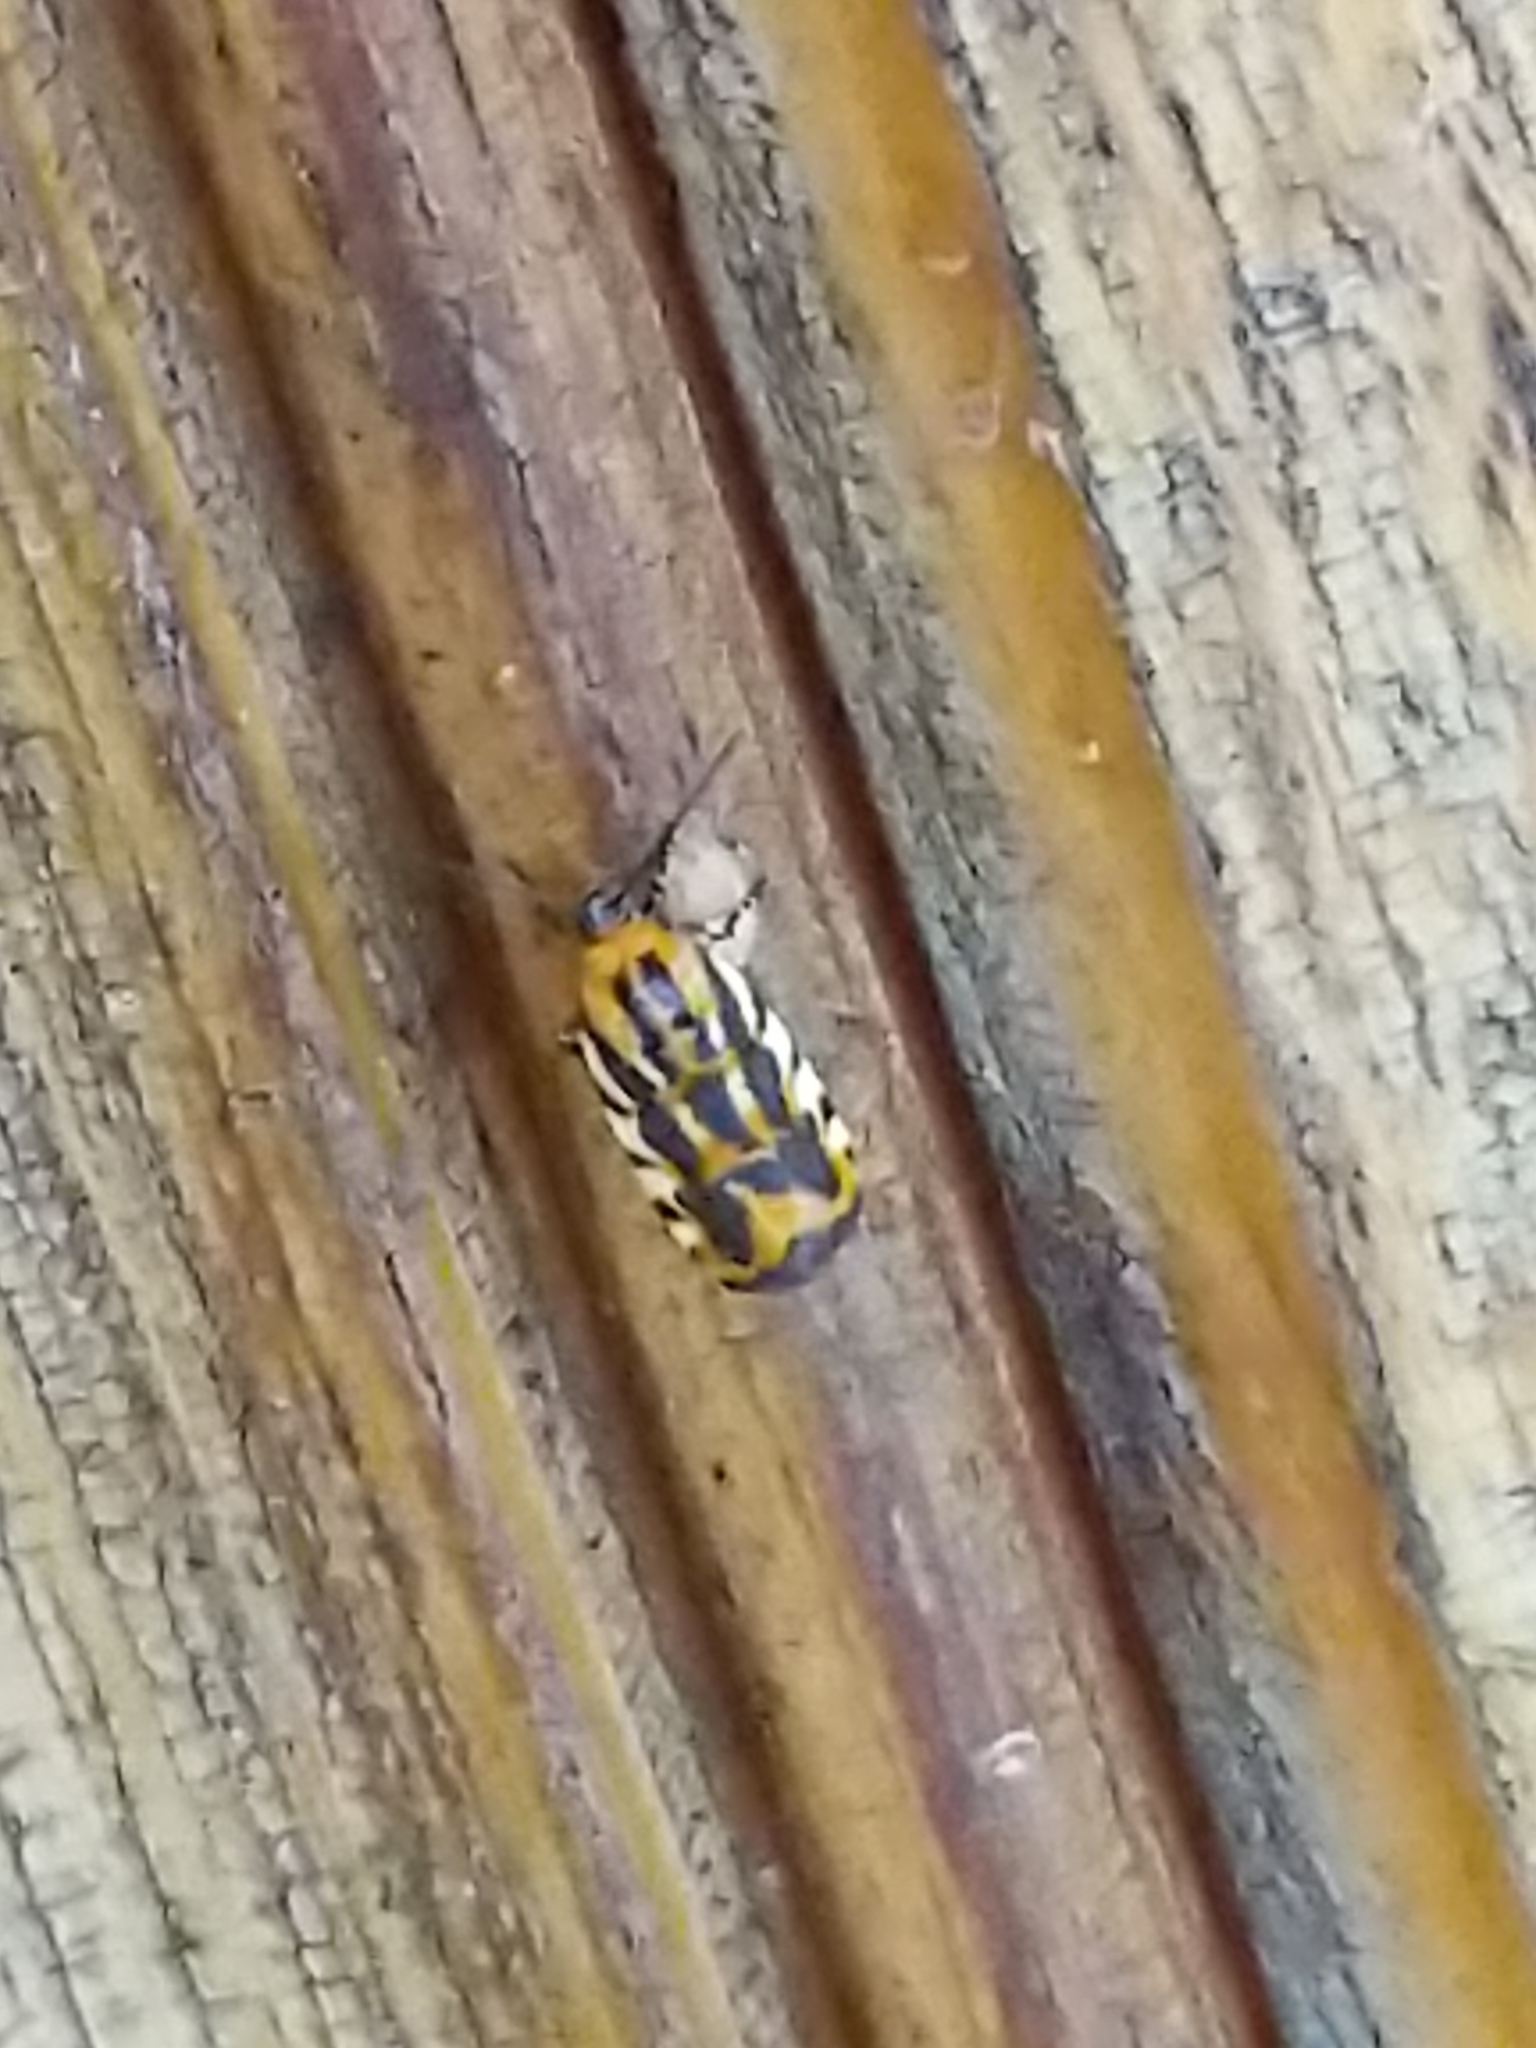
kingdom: Animalia
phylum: Arthropoda
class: Insecta
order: Lepidoptera
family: Noctuidae
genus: Acontia
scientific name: Acontia leo
